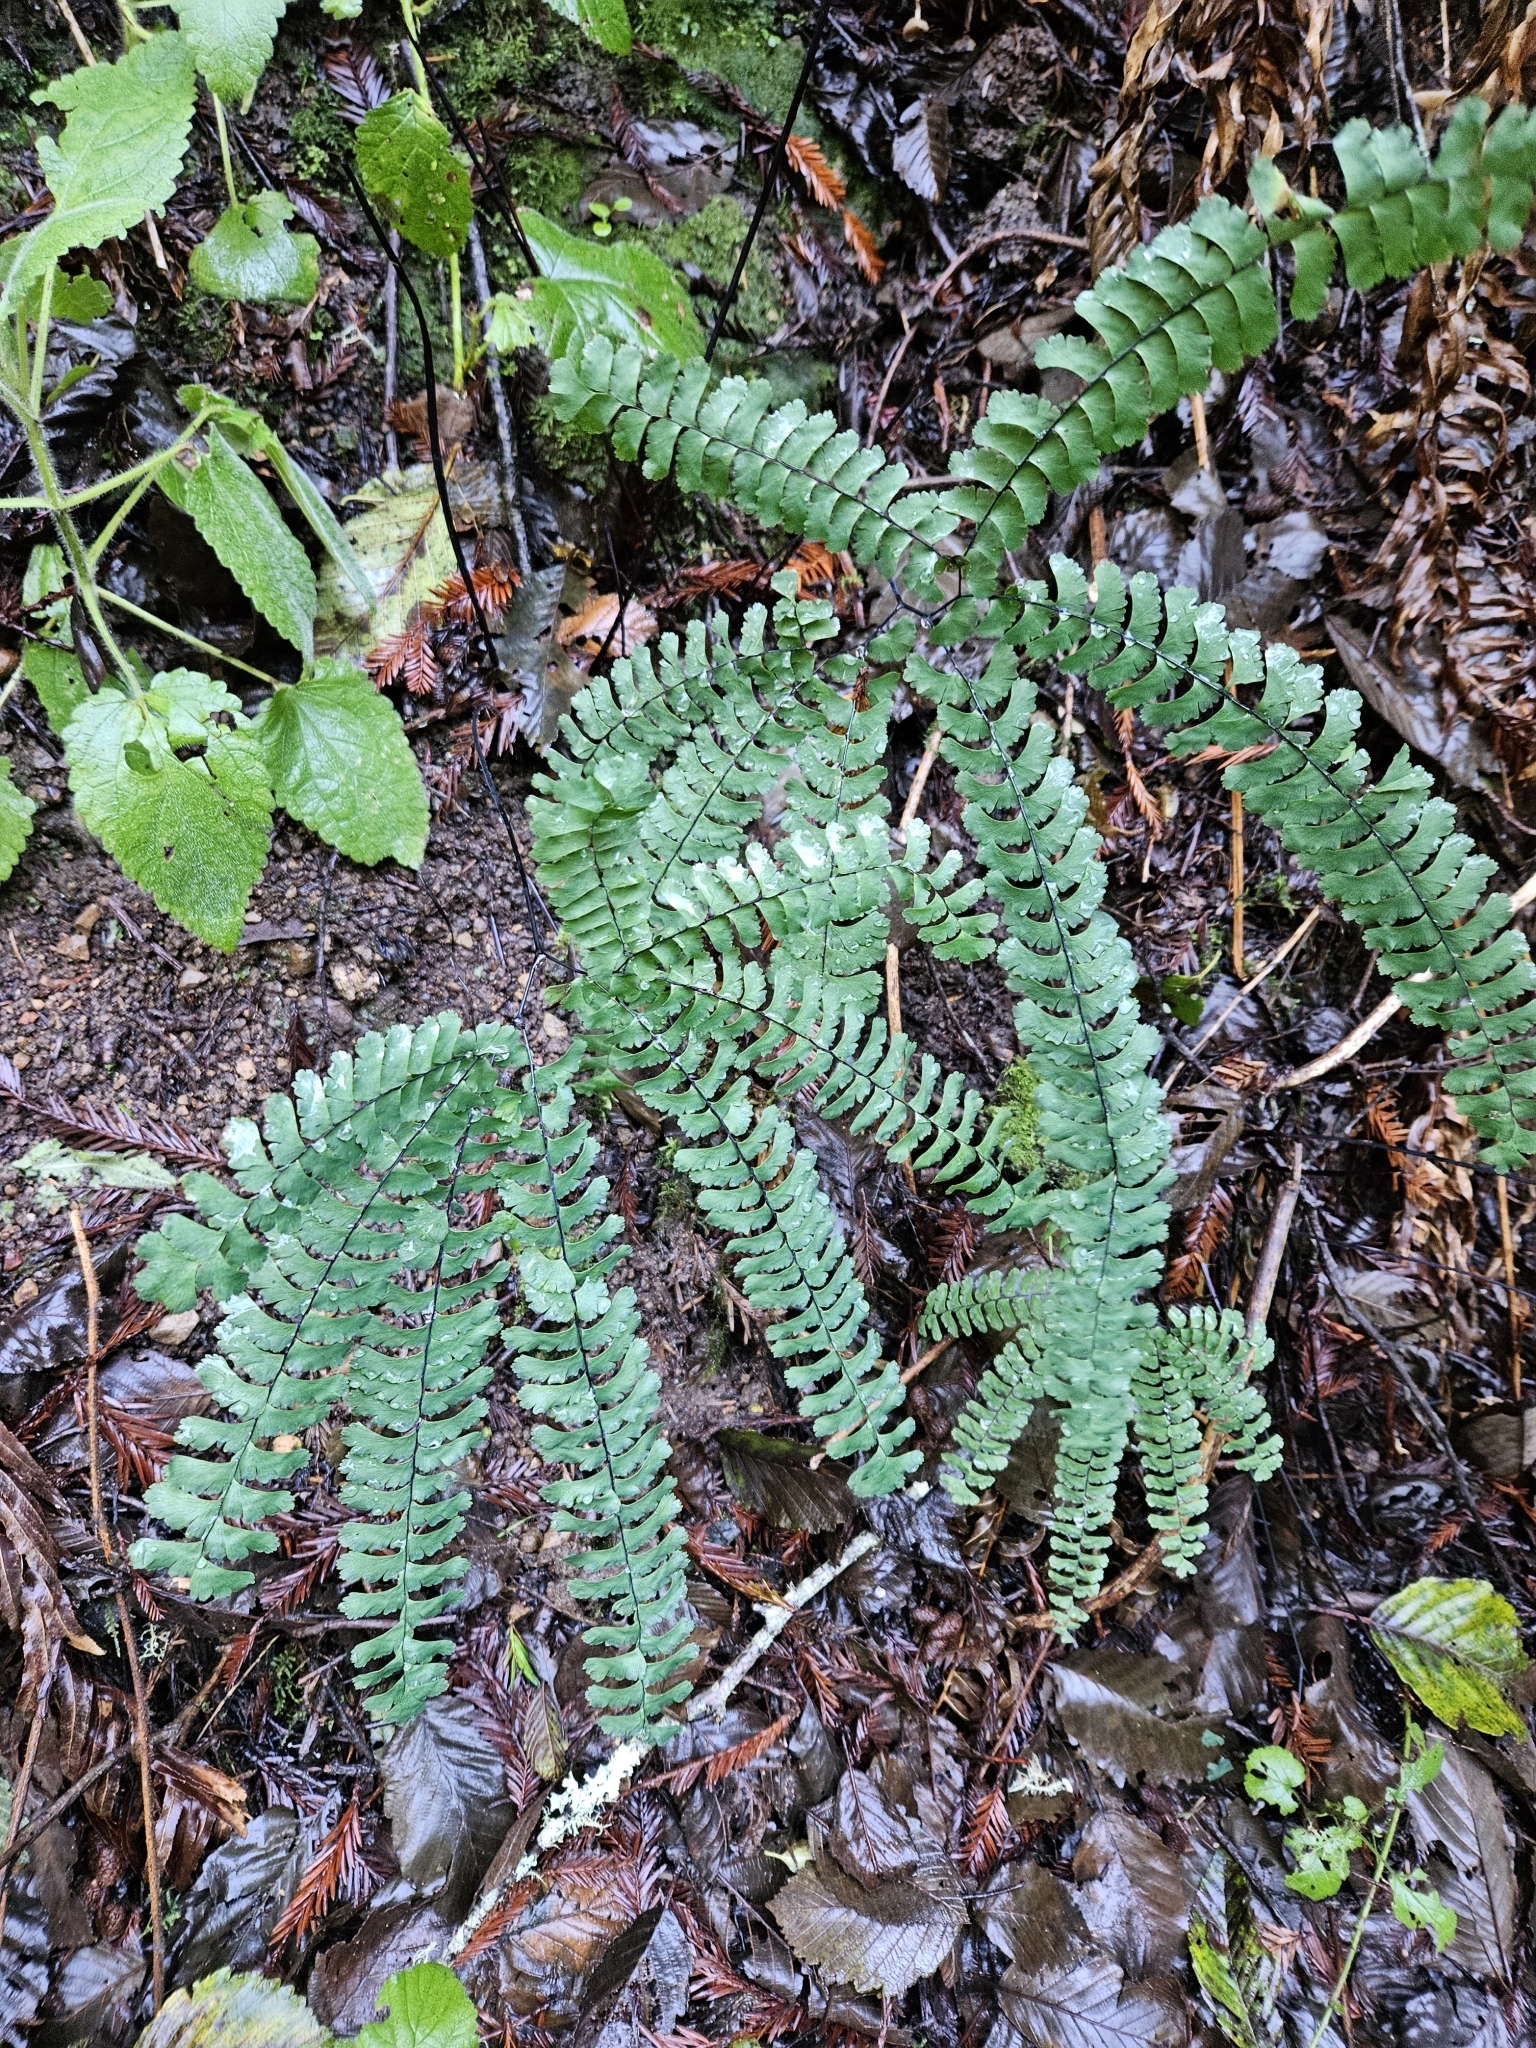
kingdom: Plantae
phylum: Tracheophyta
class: Polypodiopsida
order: Polypodiales
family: Pteridaceae
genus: Adiantum
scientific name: Adiantum aleuticum
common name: Aleutian maidenhair fern
